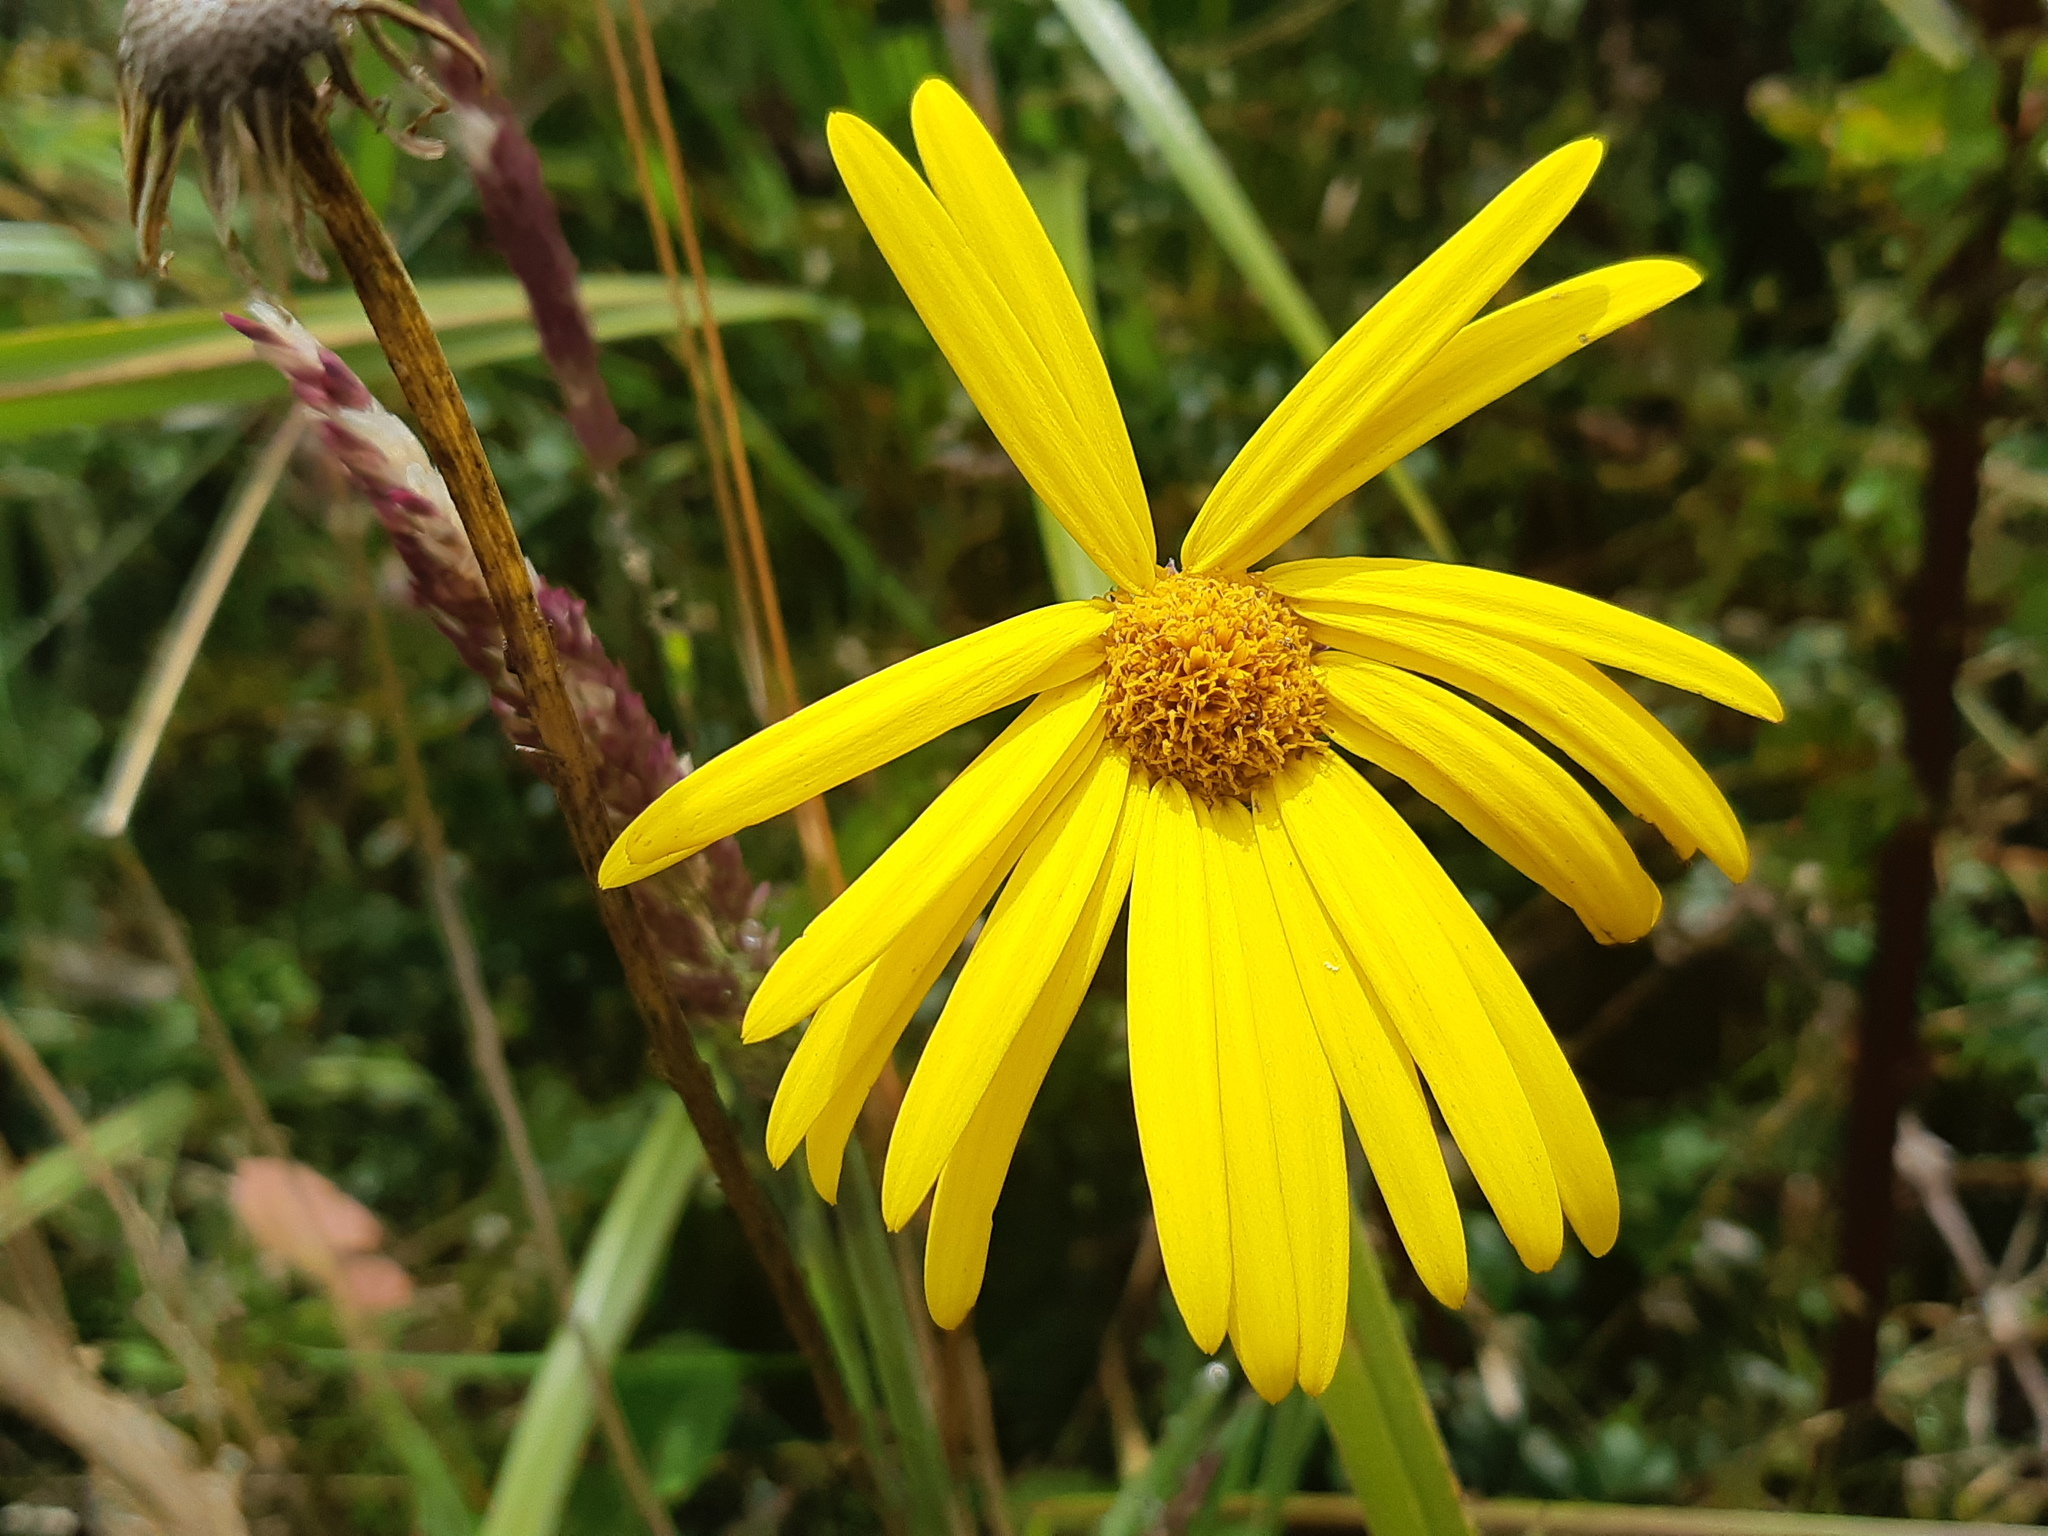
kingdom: Plantae
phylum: Tracheophyta
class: Magnoliopsida
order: Asterales
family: Asteraceae
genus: Dorobaea
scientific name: Dorobaea pimpinellifolia
